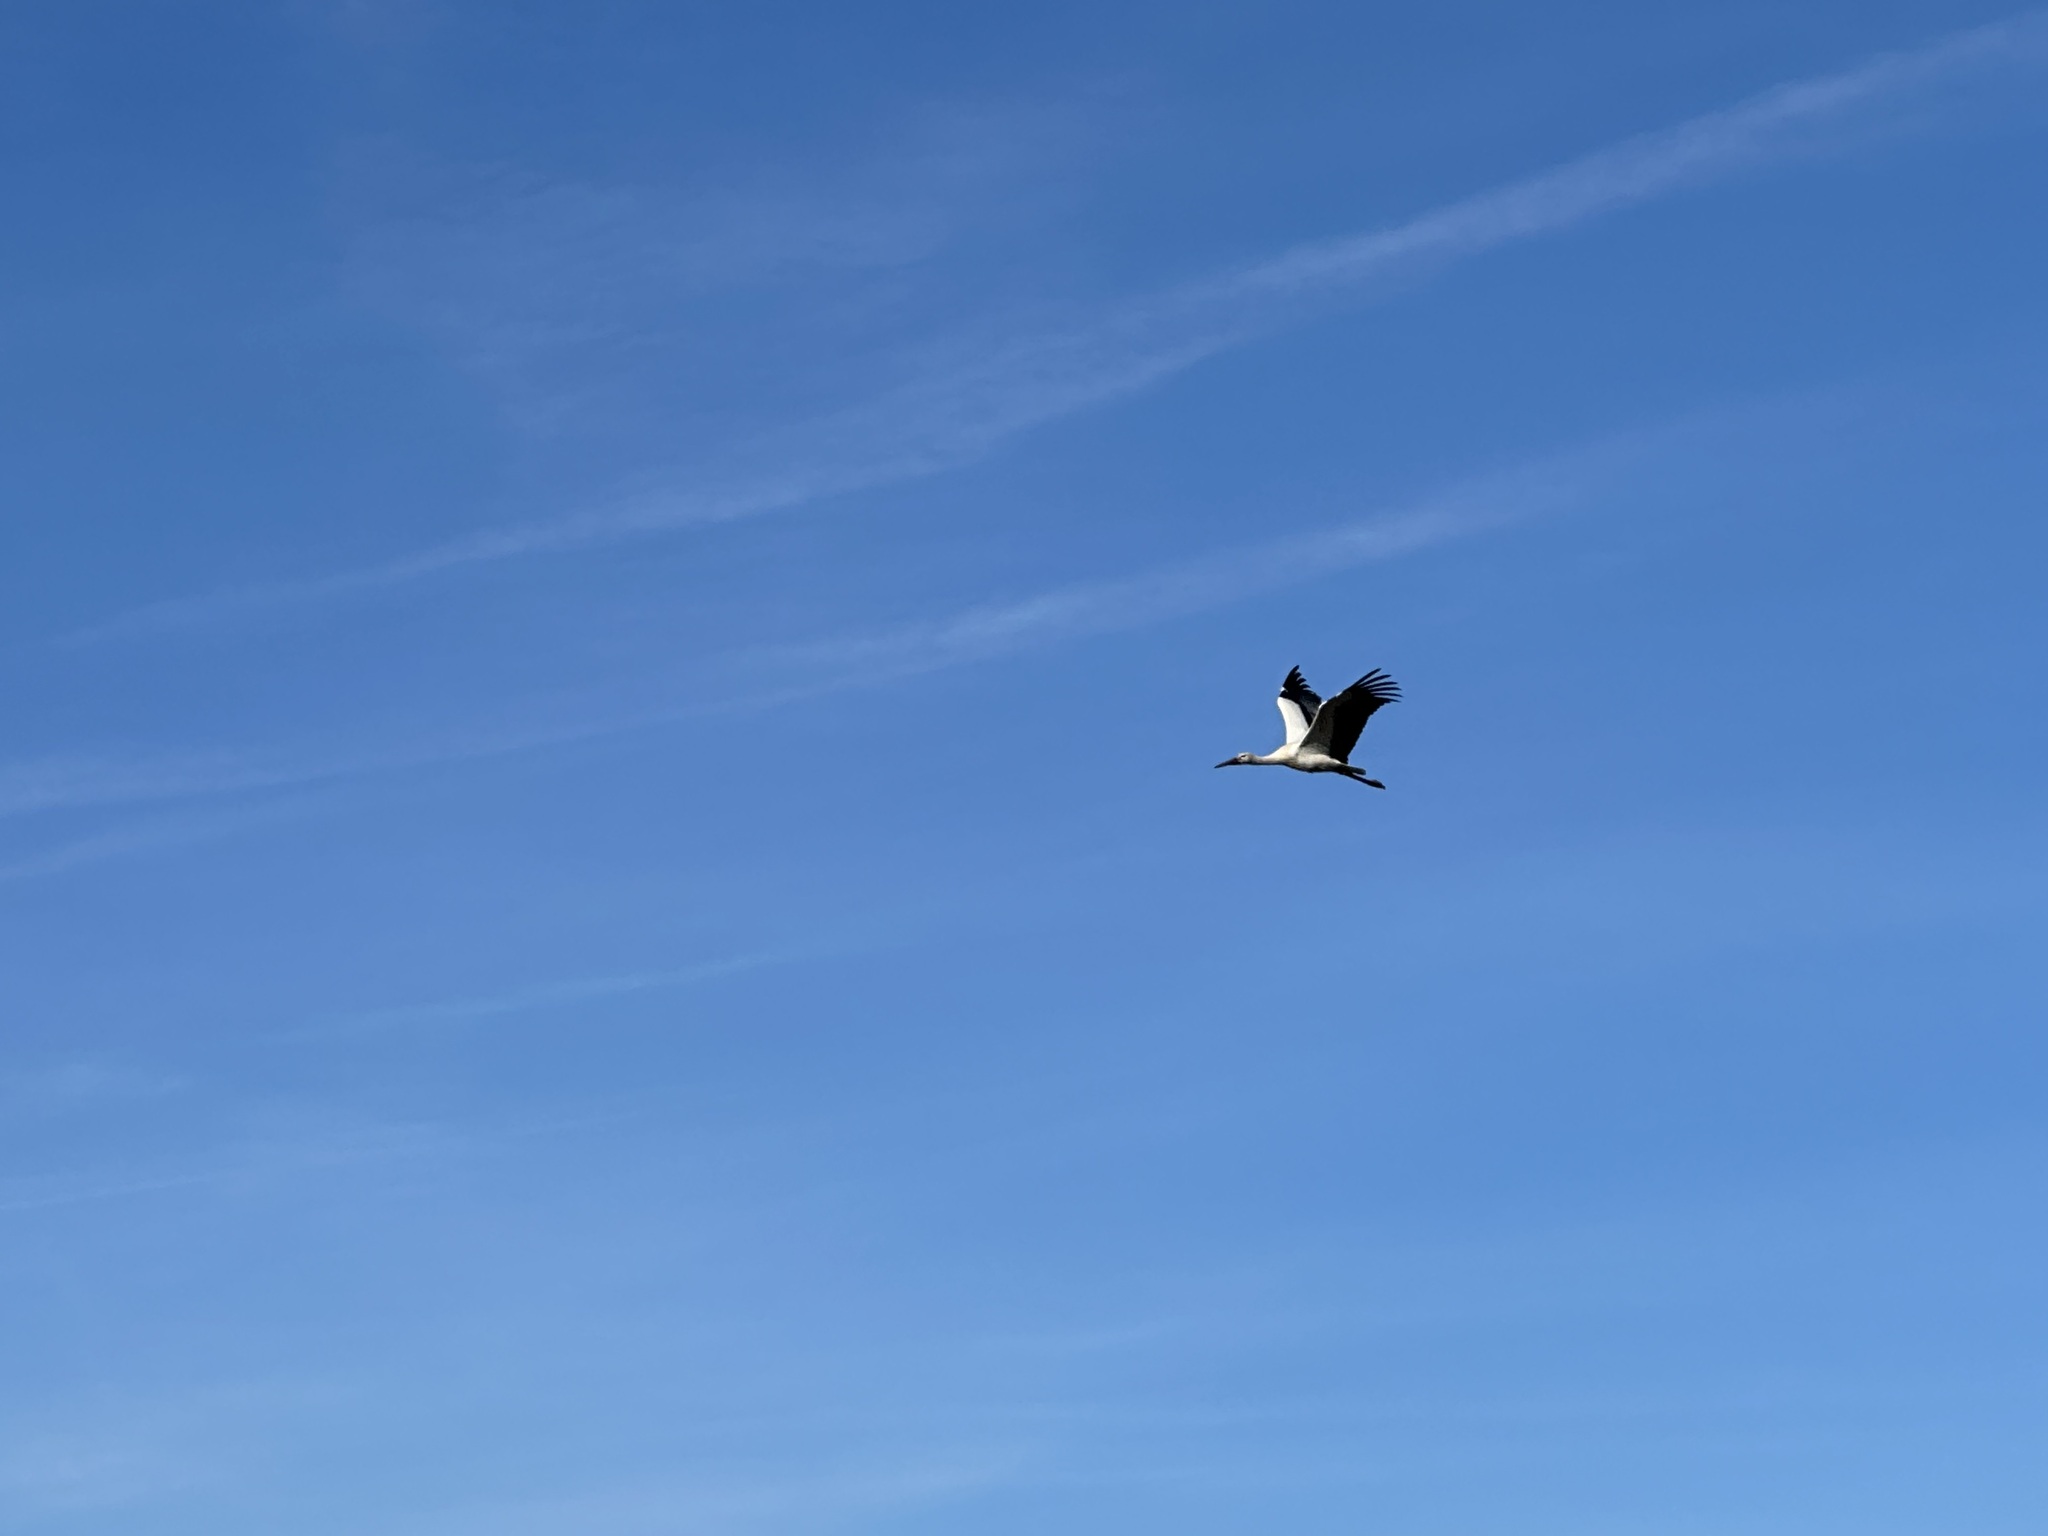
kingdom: Animalia
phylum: Chordata
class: Aves
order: Ciconiiformes
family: Ciconiidae
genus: Ciconia
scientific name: Ciconia ciconia
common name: White stork
